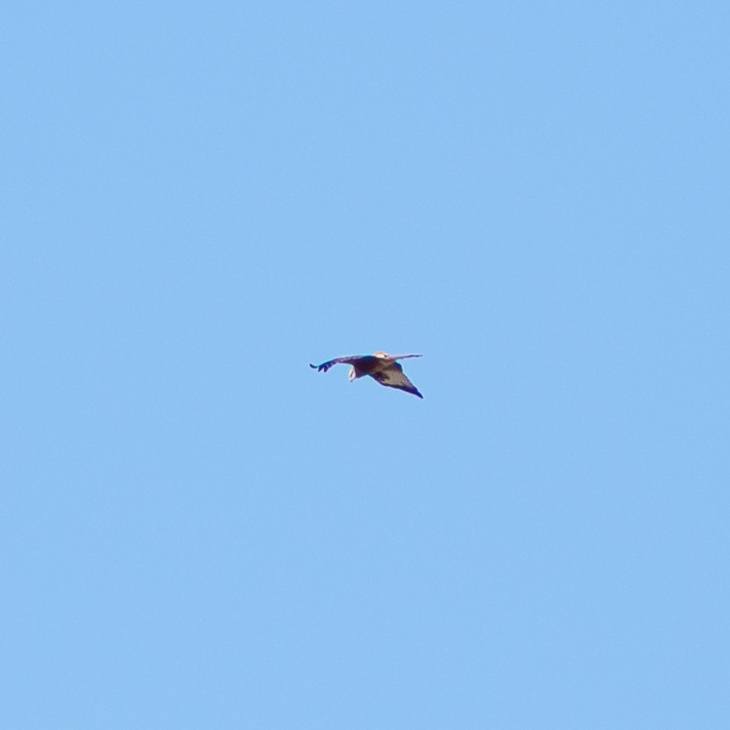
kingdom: Animalia
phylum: Chordata
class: Aves
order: Accipitriformes
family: Accipitridae
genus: Milvus
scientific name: Milvus milvus
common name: Red kite
